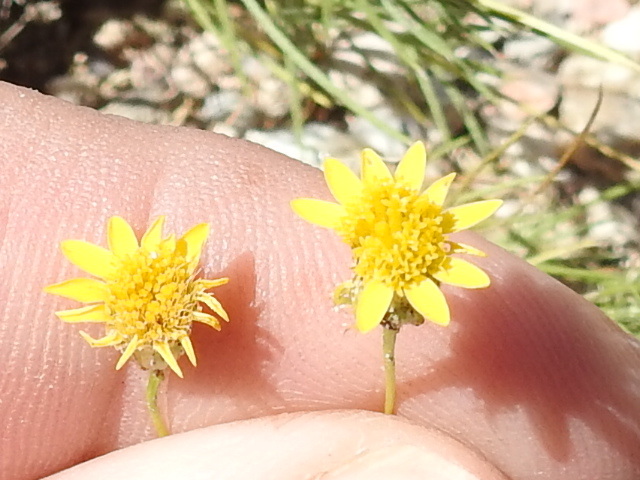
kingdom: Plantae
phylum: Tracheophyta
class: Magnoliopsida
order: Asterales
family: Asteraceae
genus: Thymophylla
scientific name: Thymophylla pentachaeta
